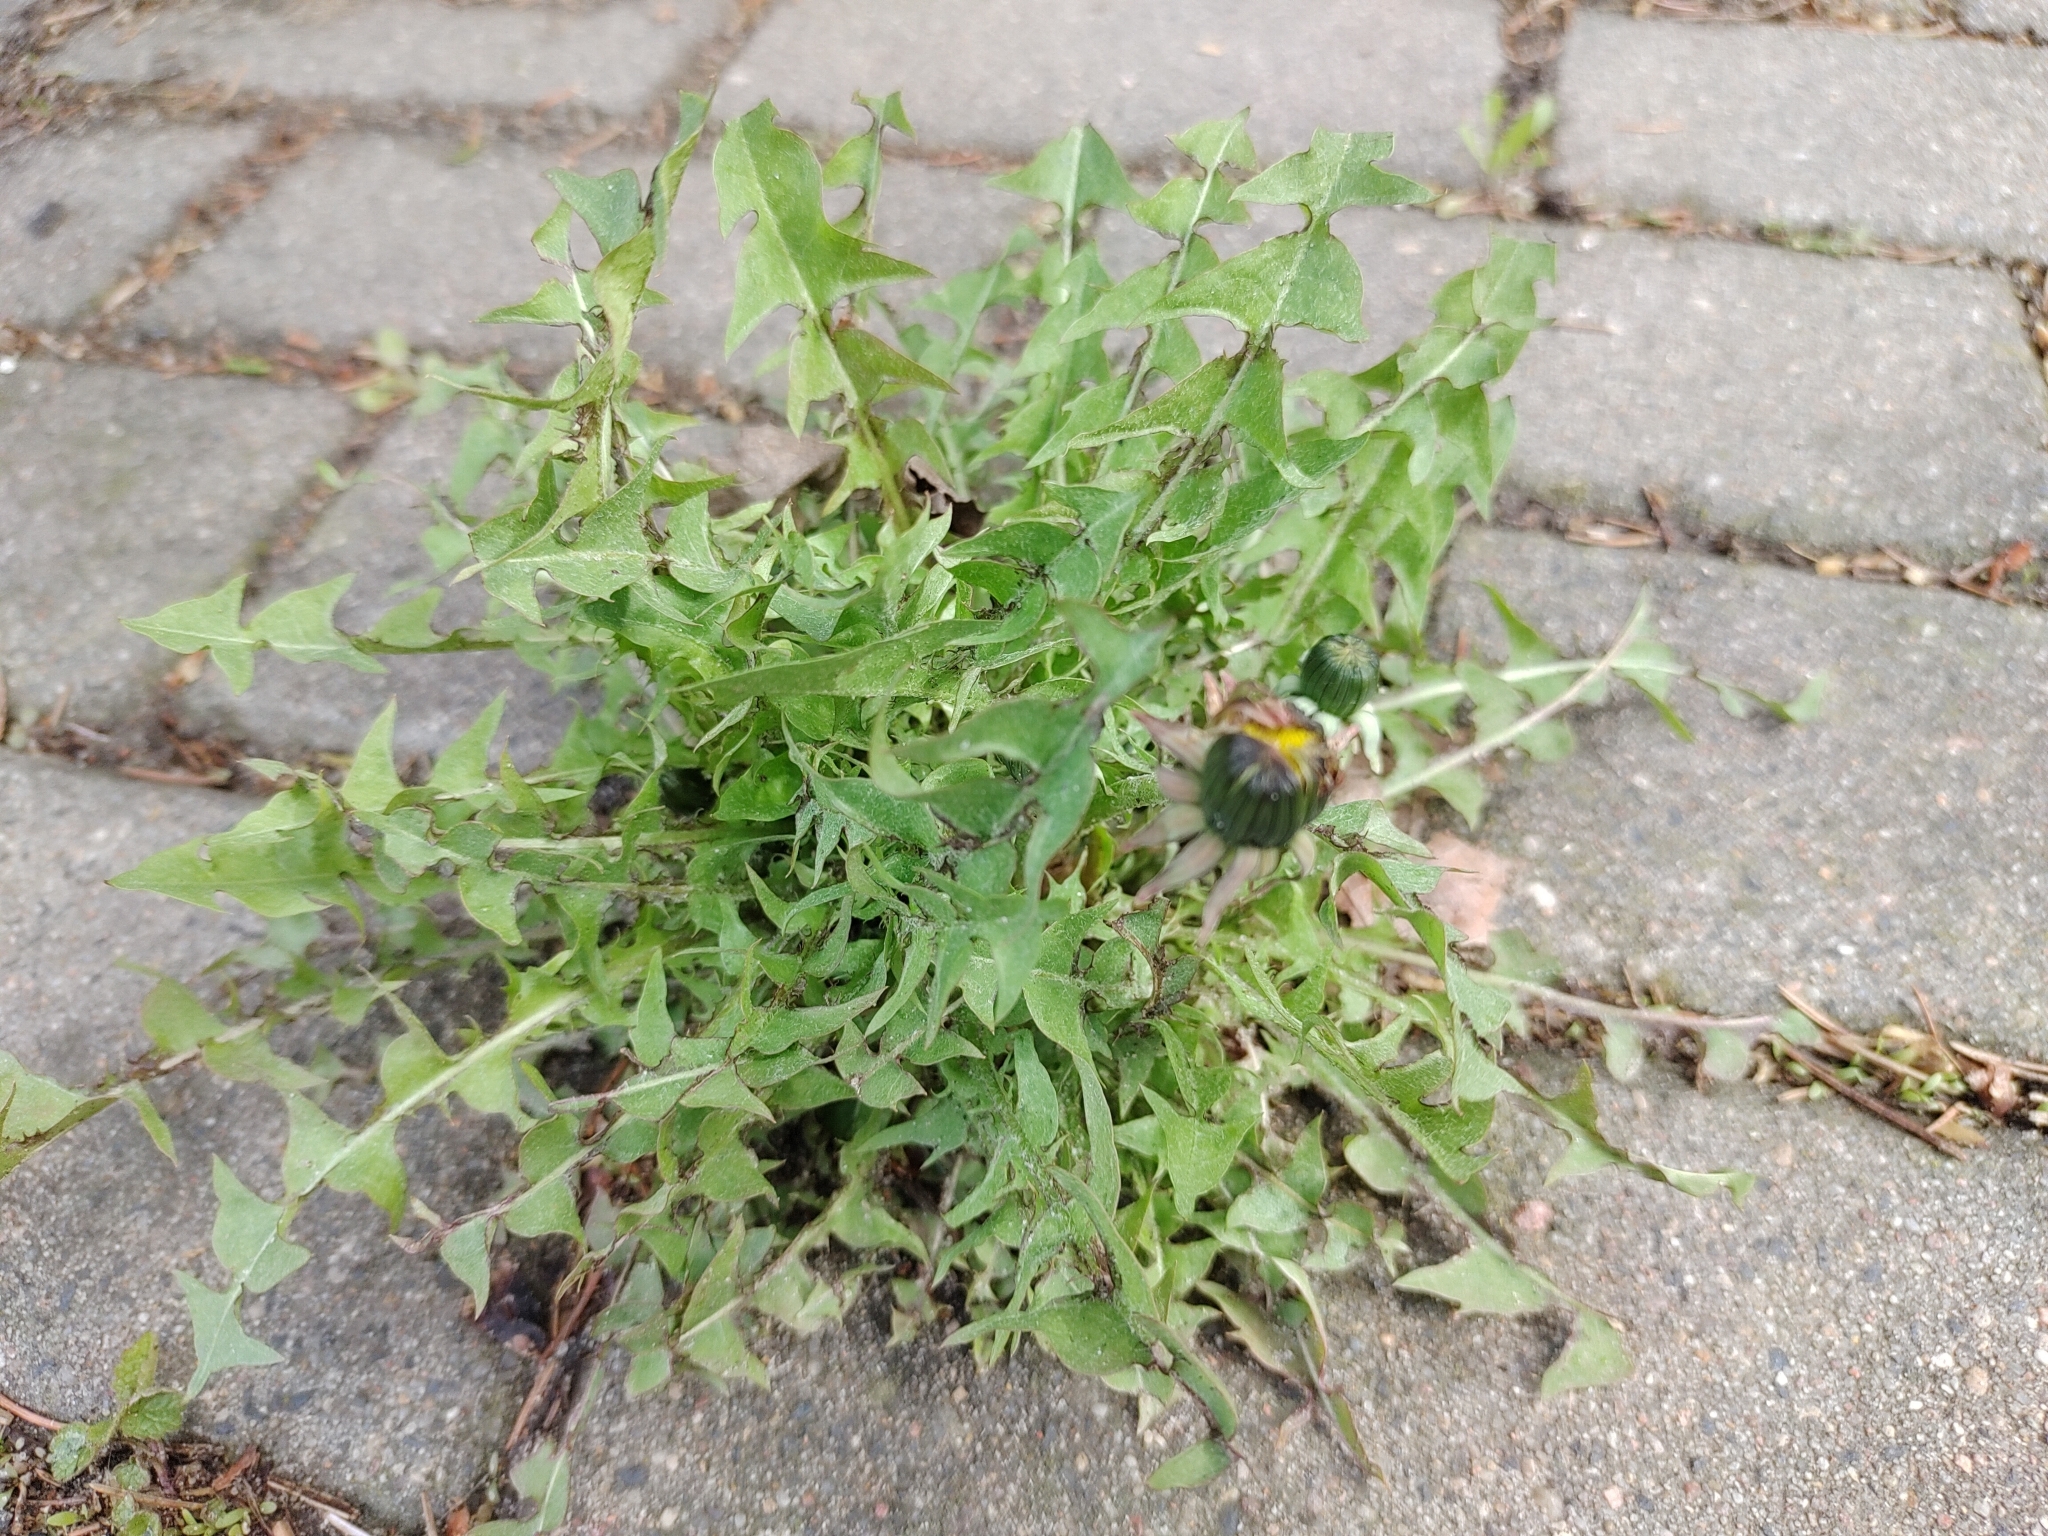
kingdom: Plantae
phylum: Tracheophyta
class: Magnoliopsida
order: Asterales
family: Asteraceae
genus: Taraxacum
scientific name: Taraxacum
